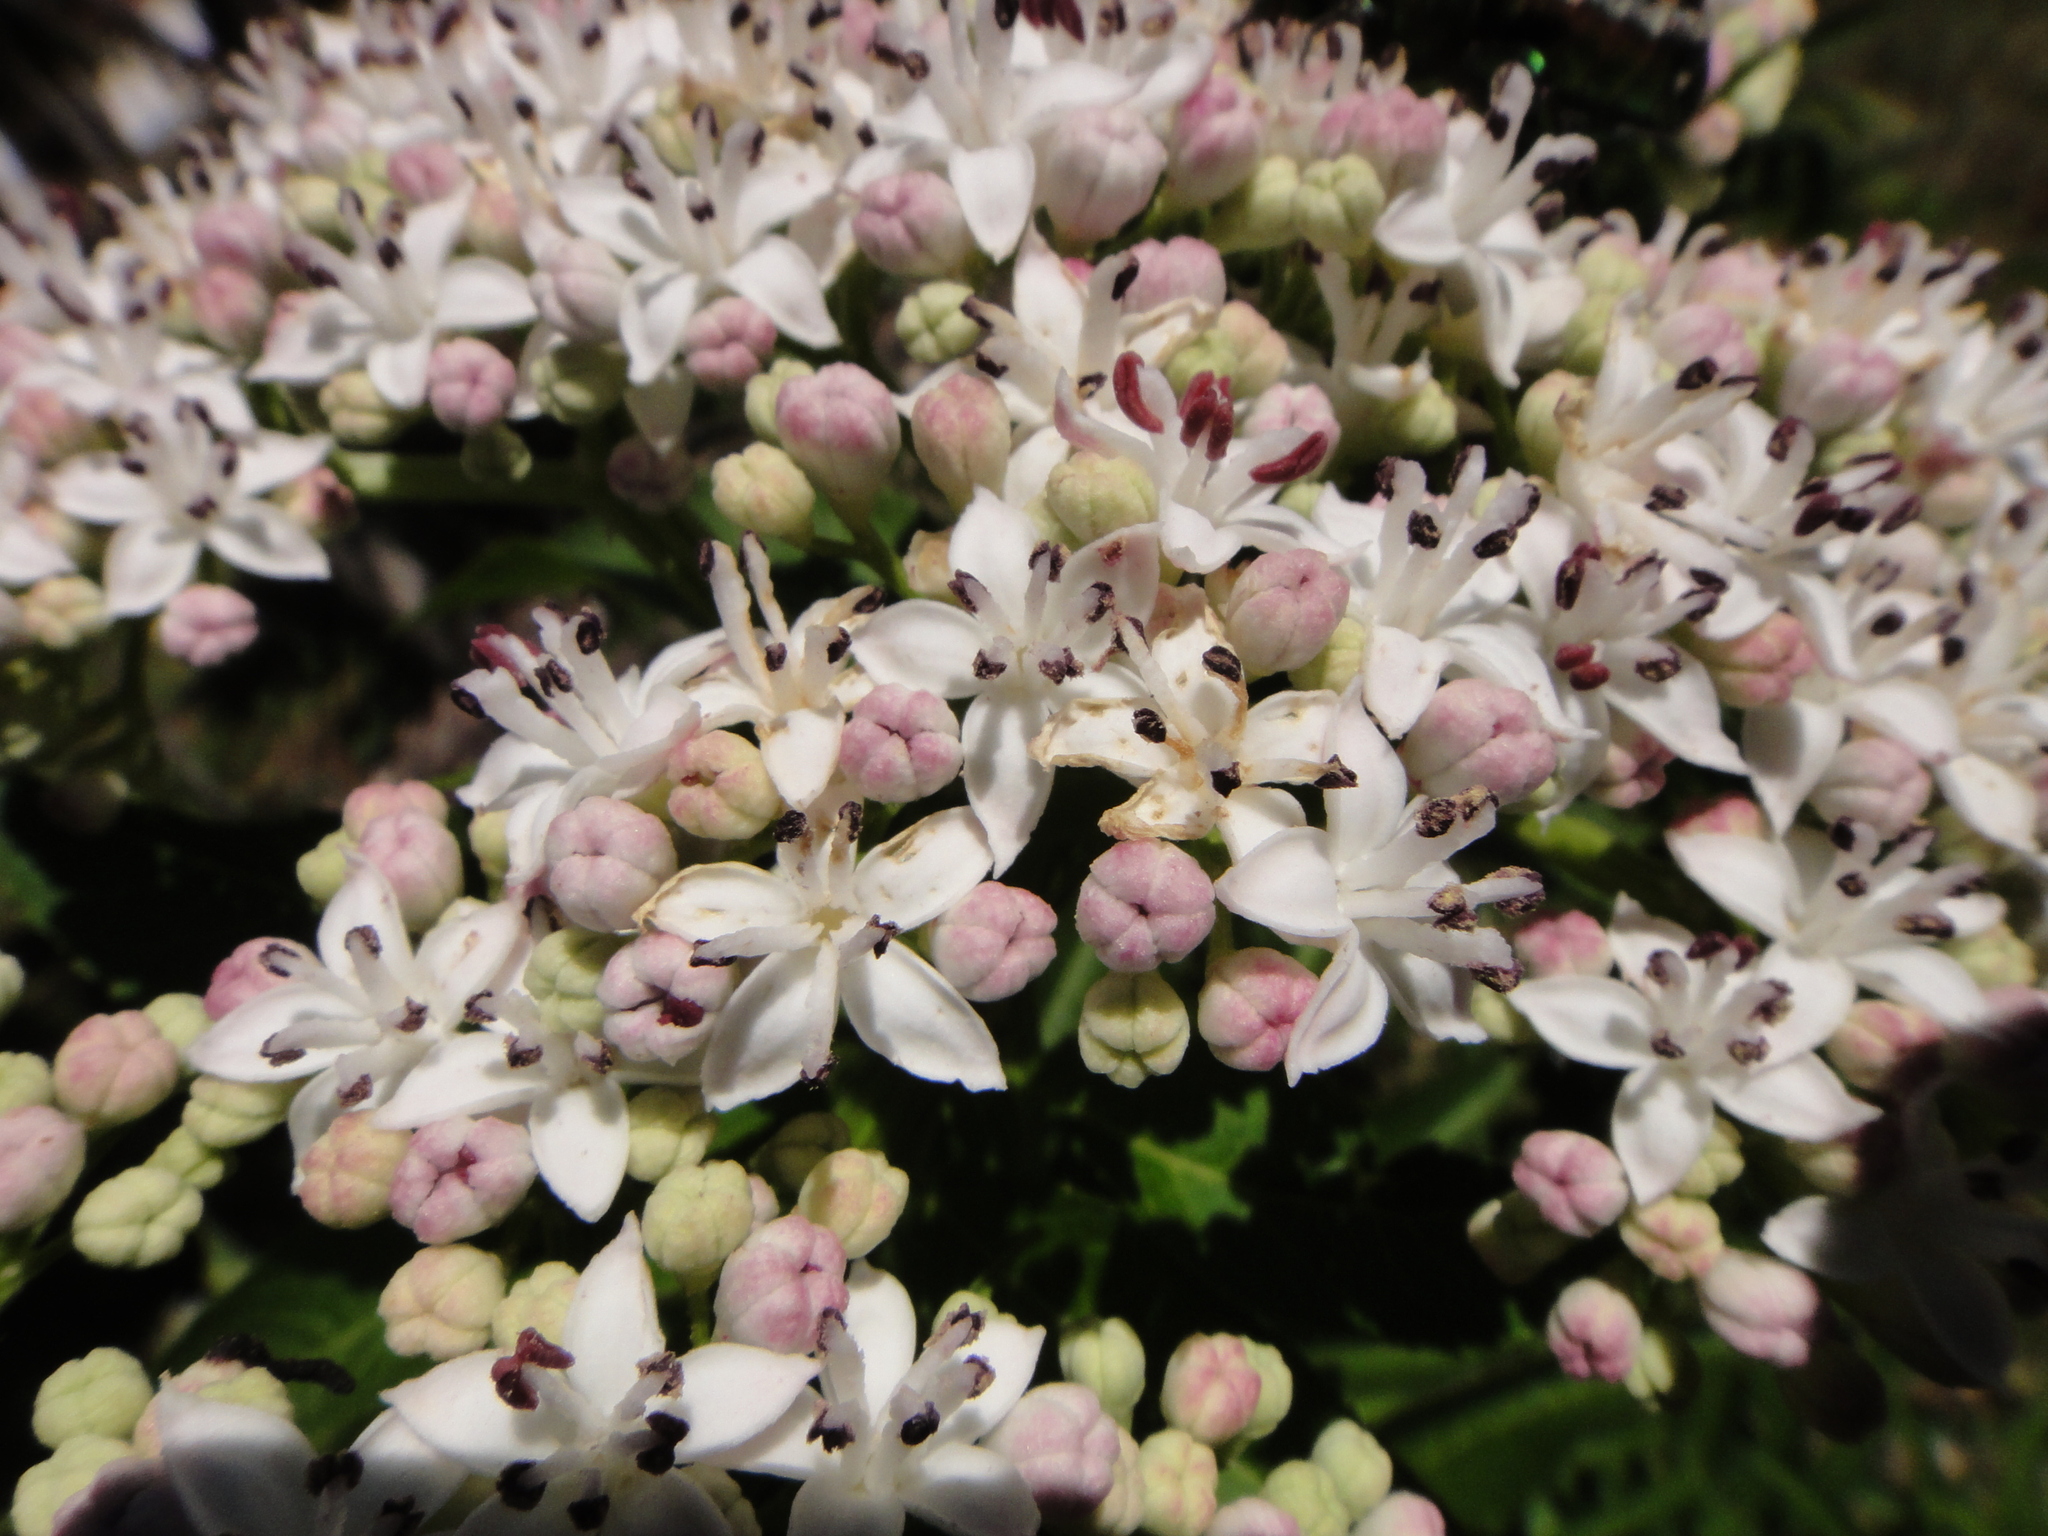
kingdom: Plantae
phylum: Tracheophyta
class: Magnoliopsida
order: Dipsacales
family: Viburnaceae
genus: Sambucus
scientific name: Sambucus ebulus
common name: Dwarf elder
